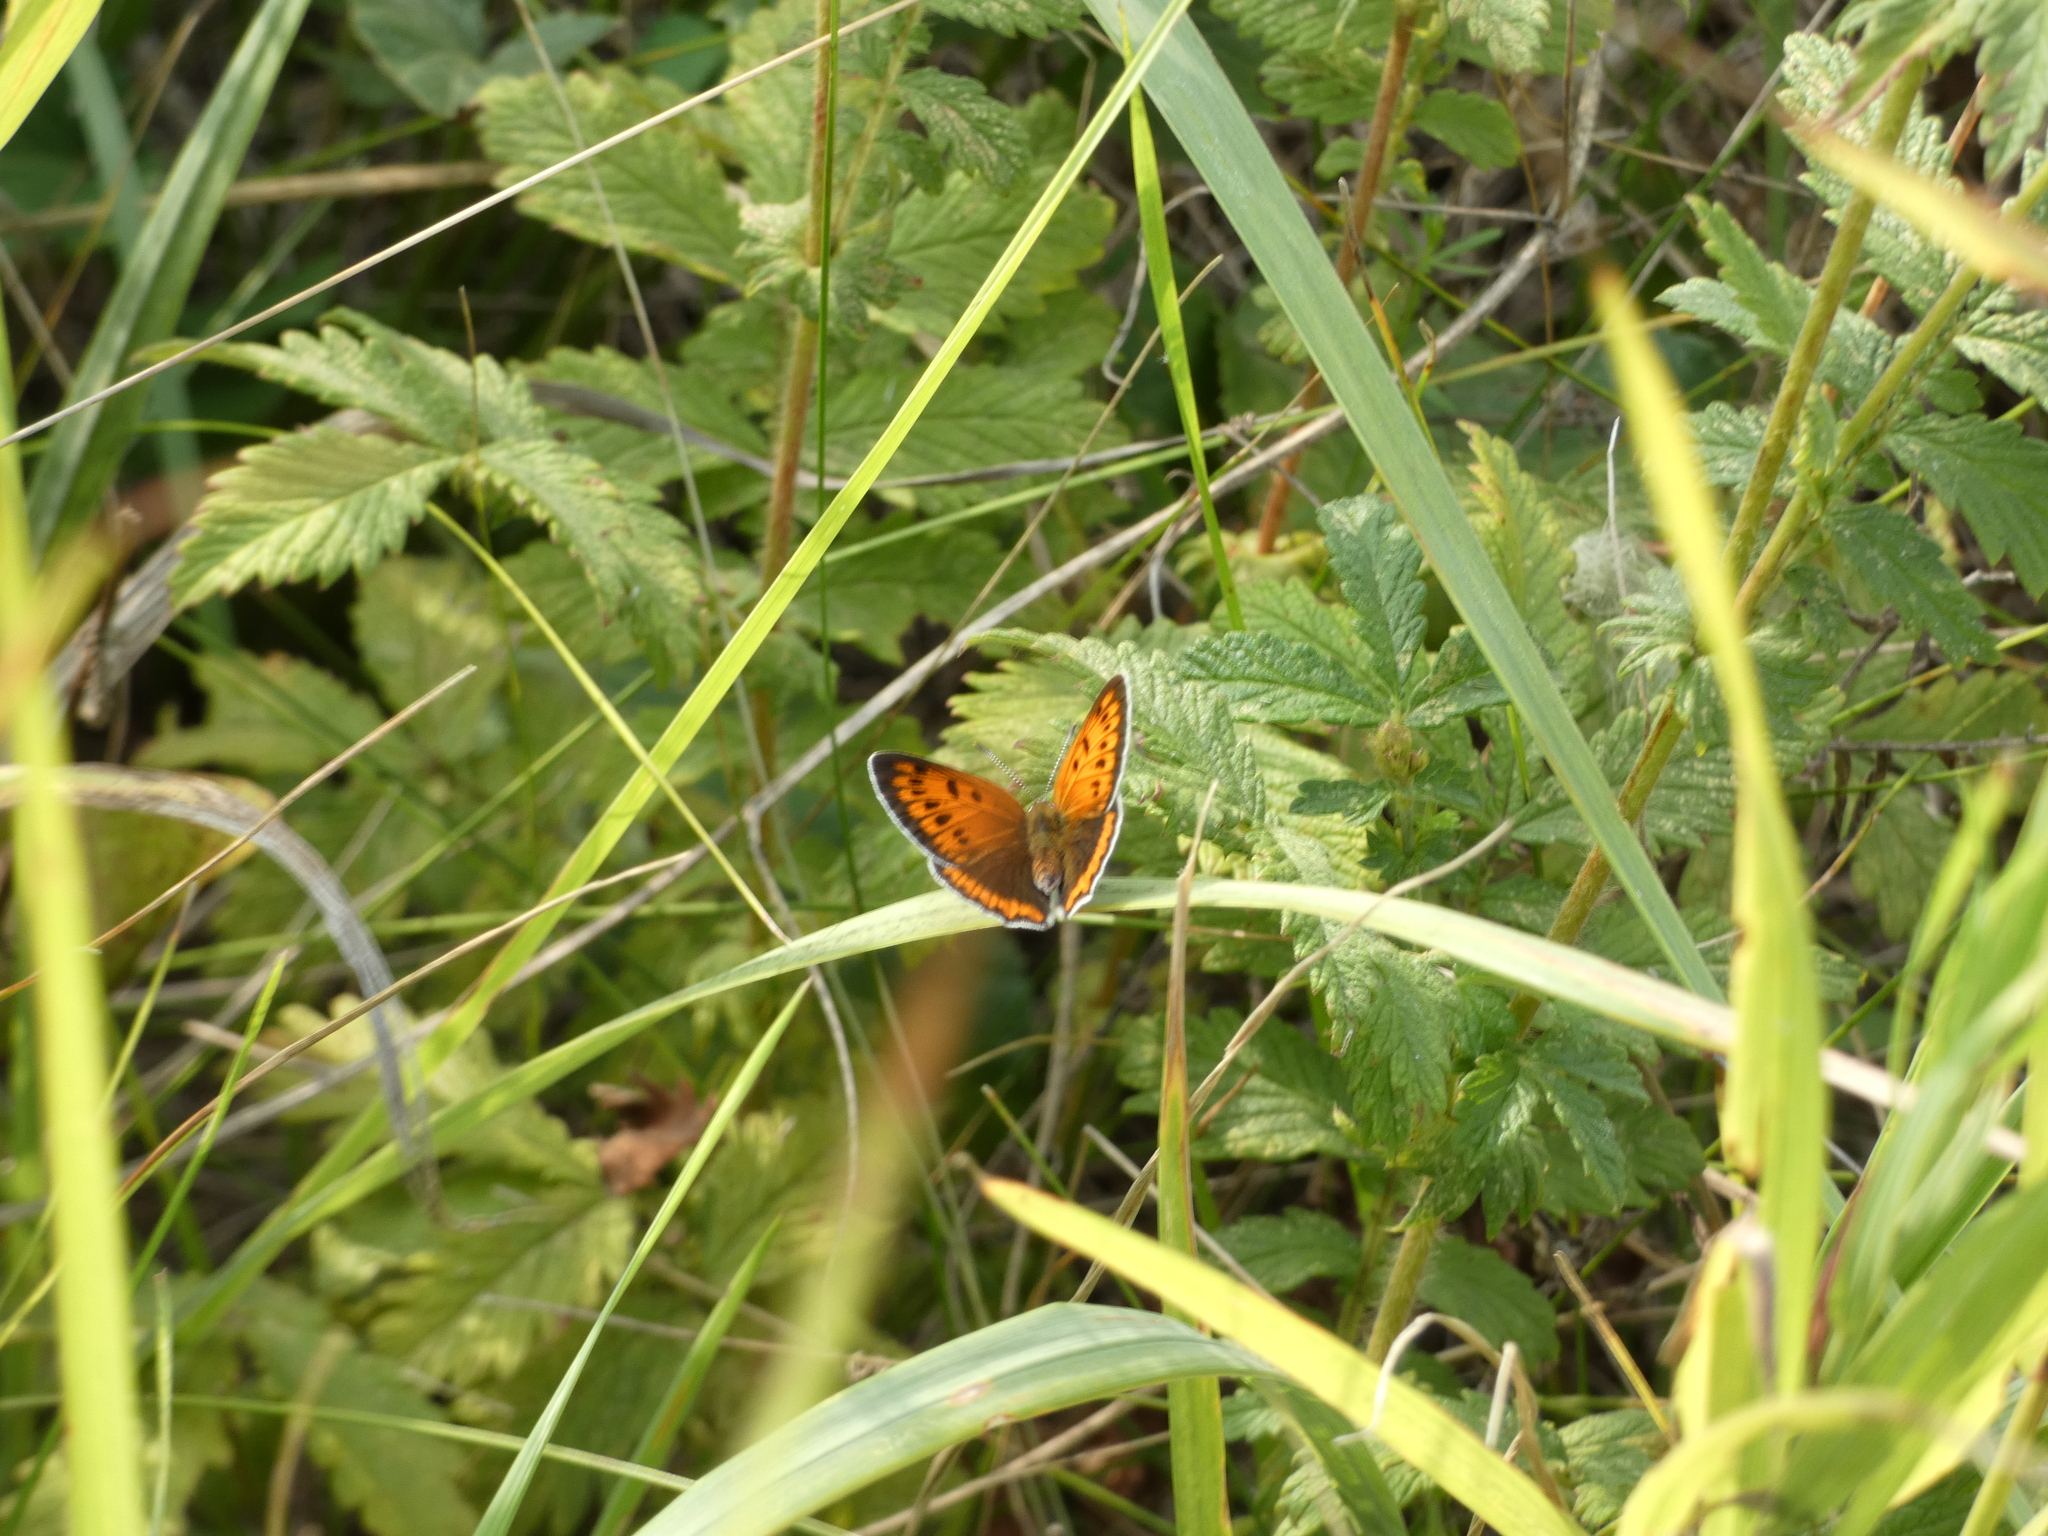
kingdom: Animalia
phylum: Arthropoda
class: Insecta
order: Lepidoptera
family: Lycaenidae
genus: Lycaena
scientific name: Lycaena dispar
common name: Large copper
